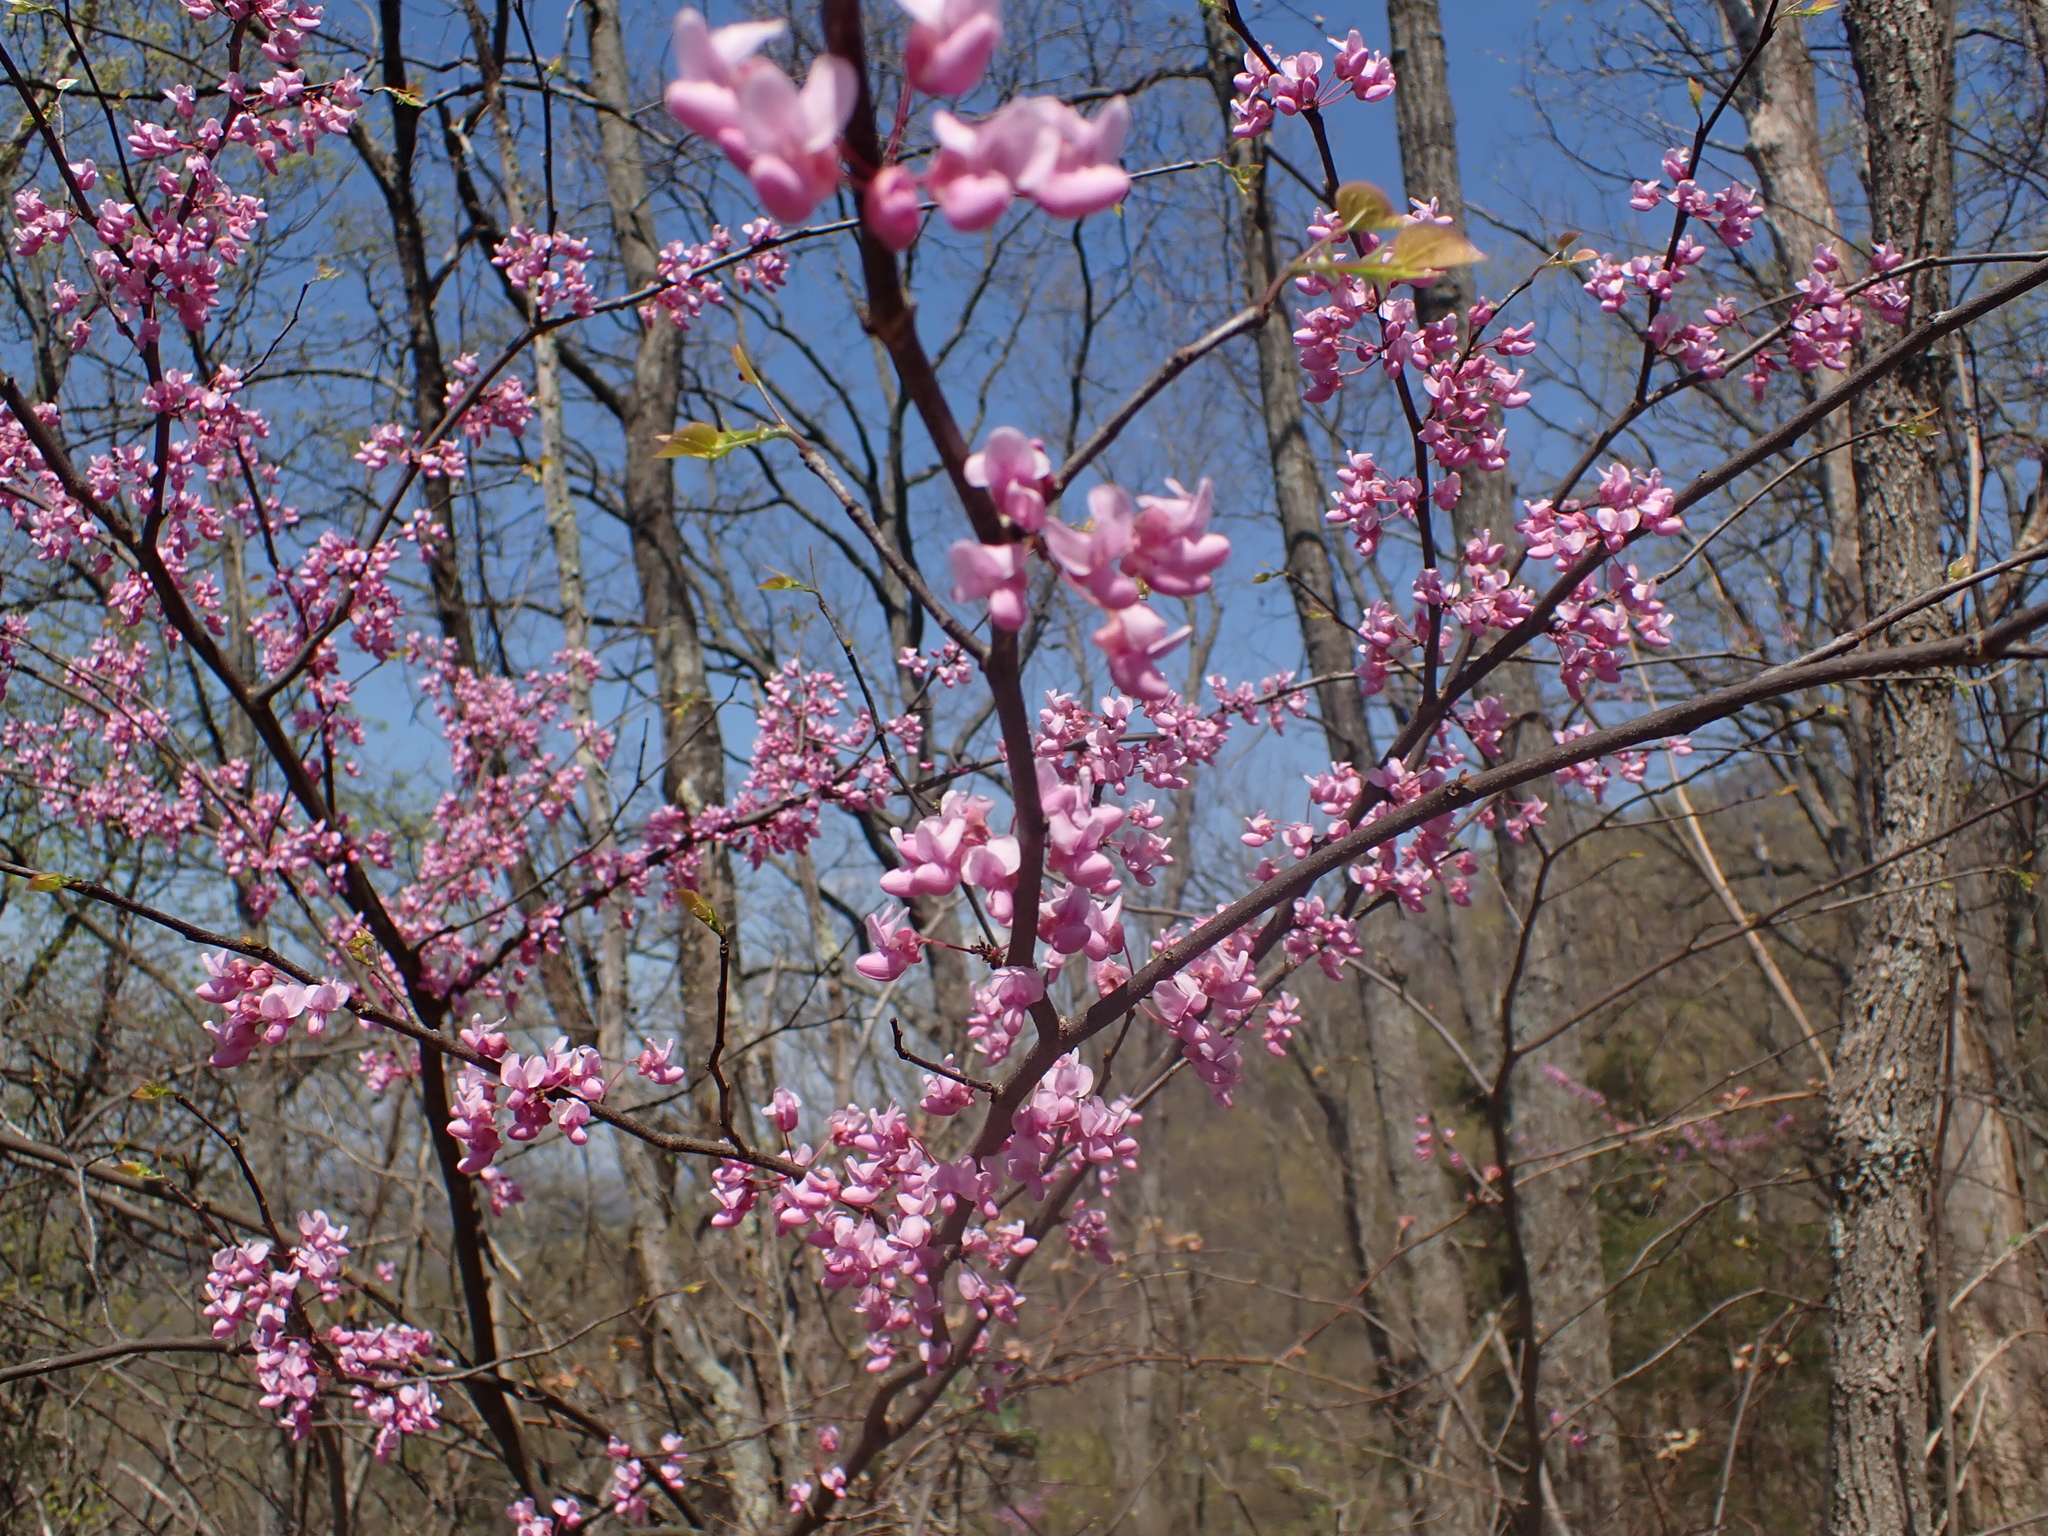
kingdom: Plantae
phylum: Tracheophyta
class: Magnoliopsida
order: Fabales
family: Fabaceae
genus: Cercis
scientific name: Cercis canadensis
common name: Eastern redbud
